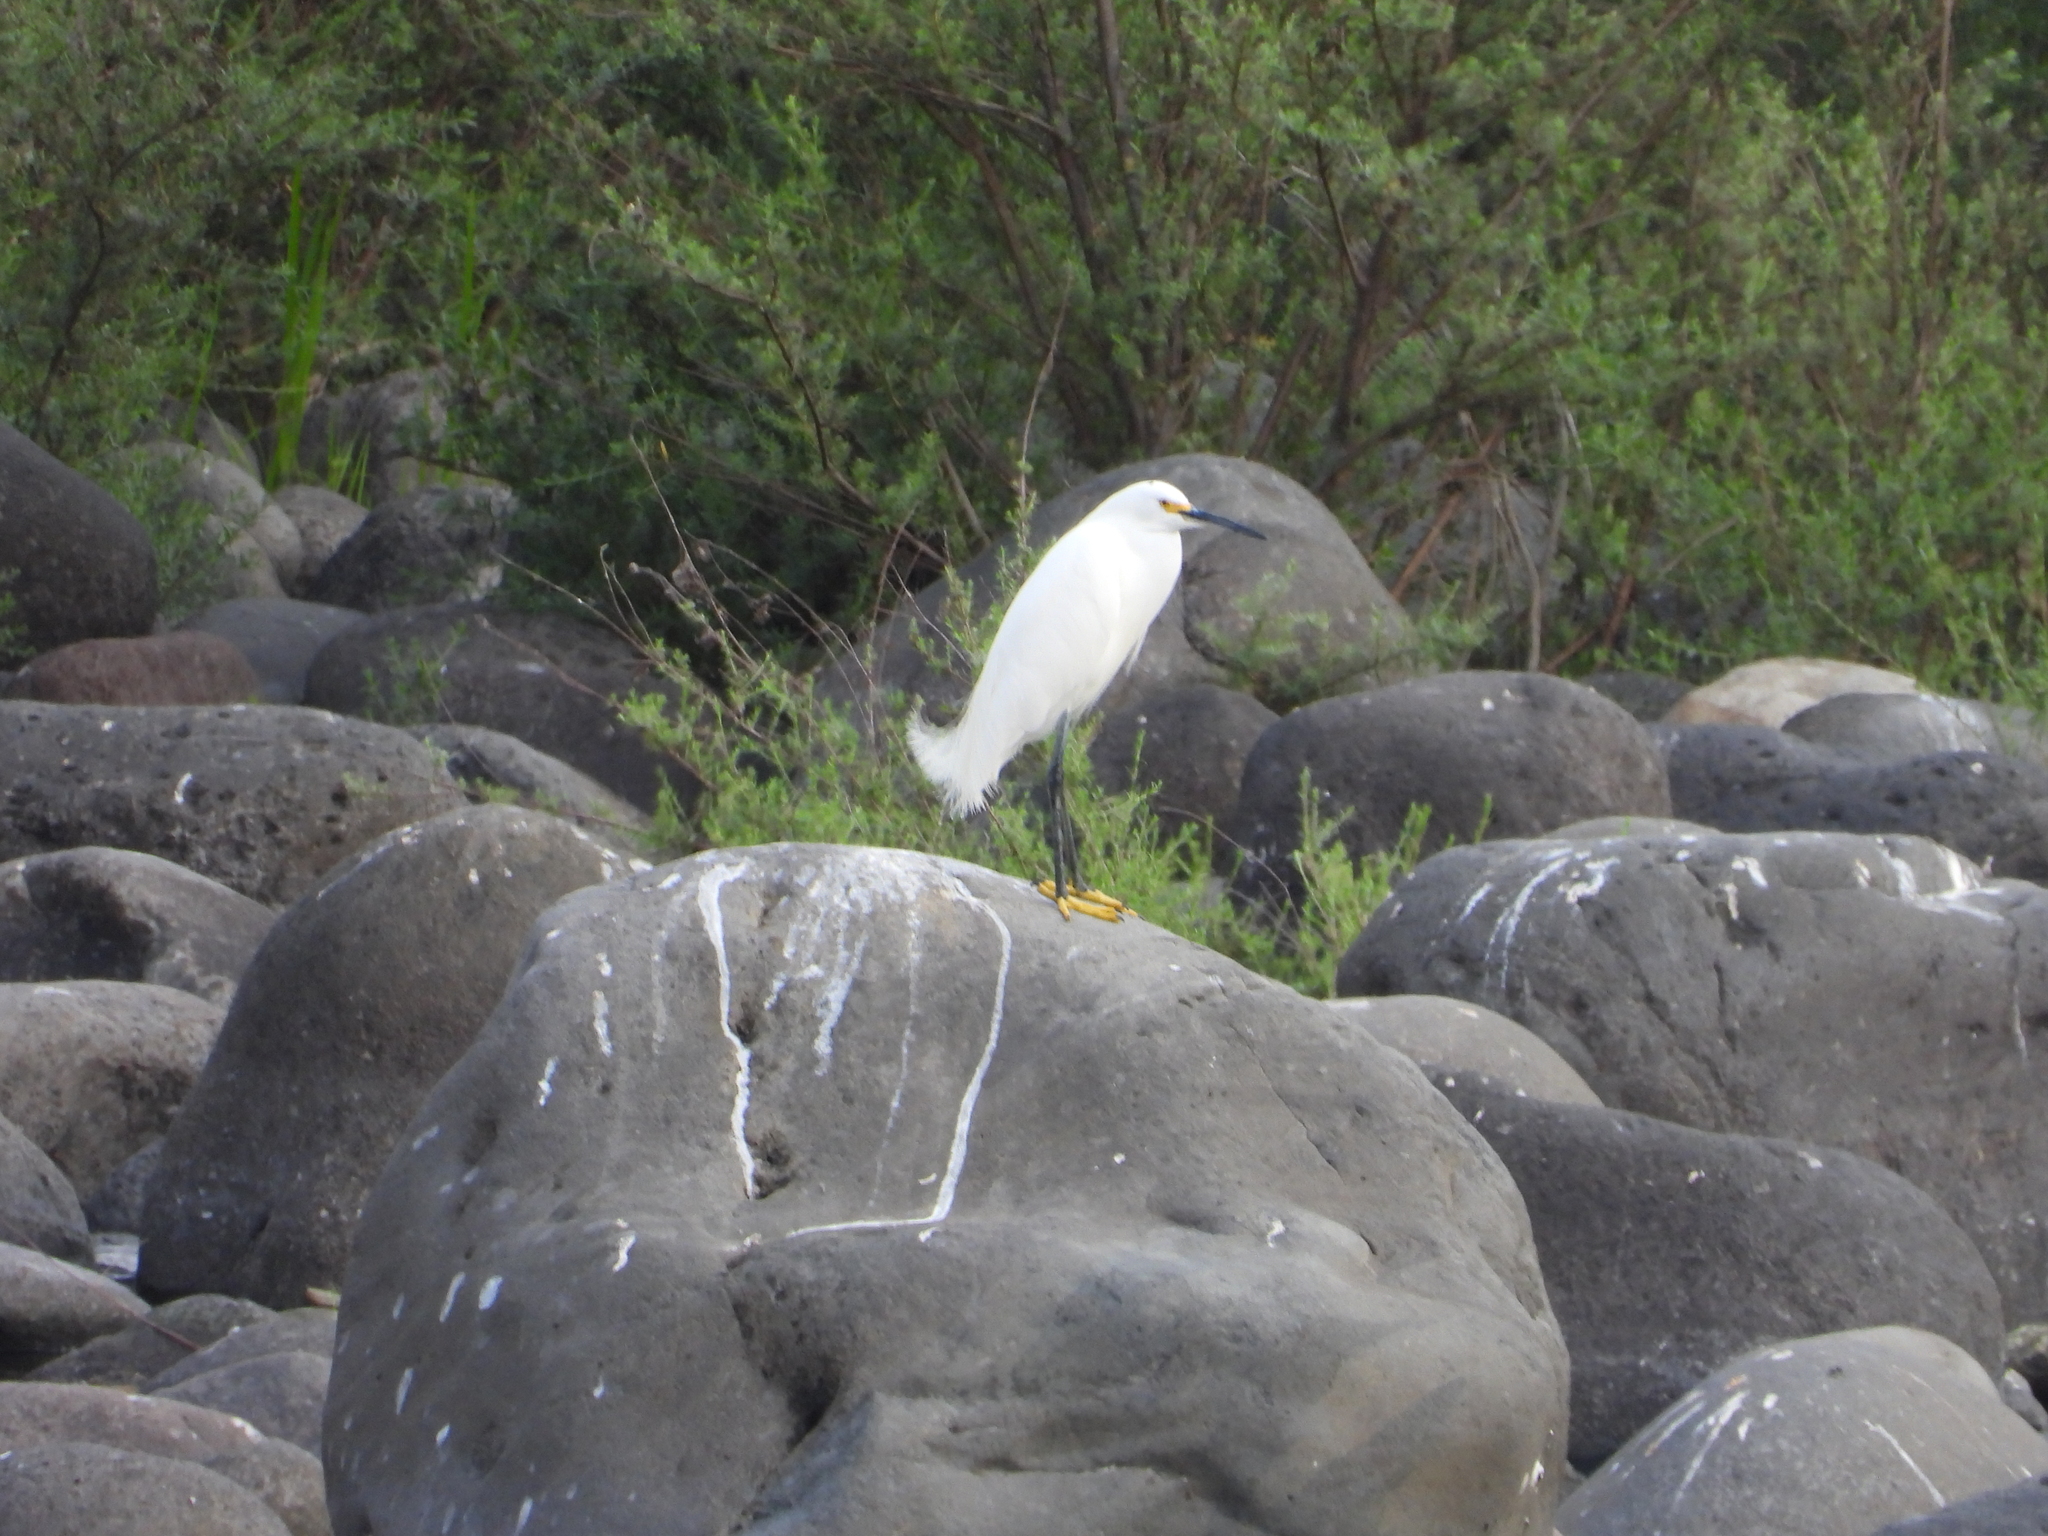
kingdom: Animalia
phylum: Chordata
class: Aves
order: Pelecaniformes
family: Ardeidae
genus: Egretta
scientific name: Egretta thula
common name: Snowy egret
